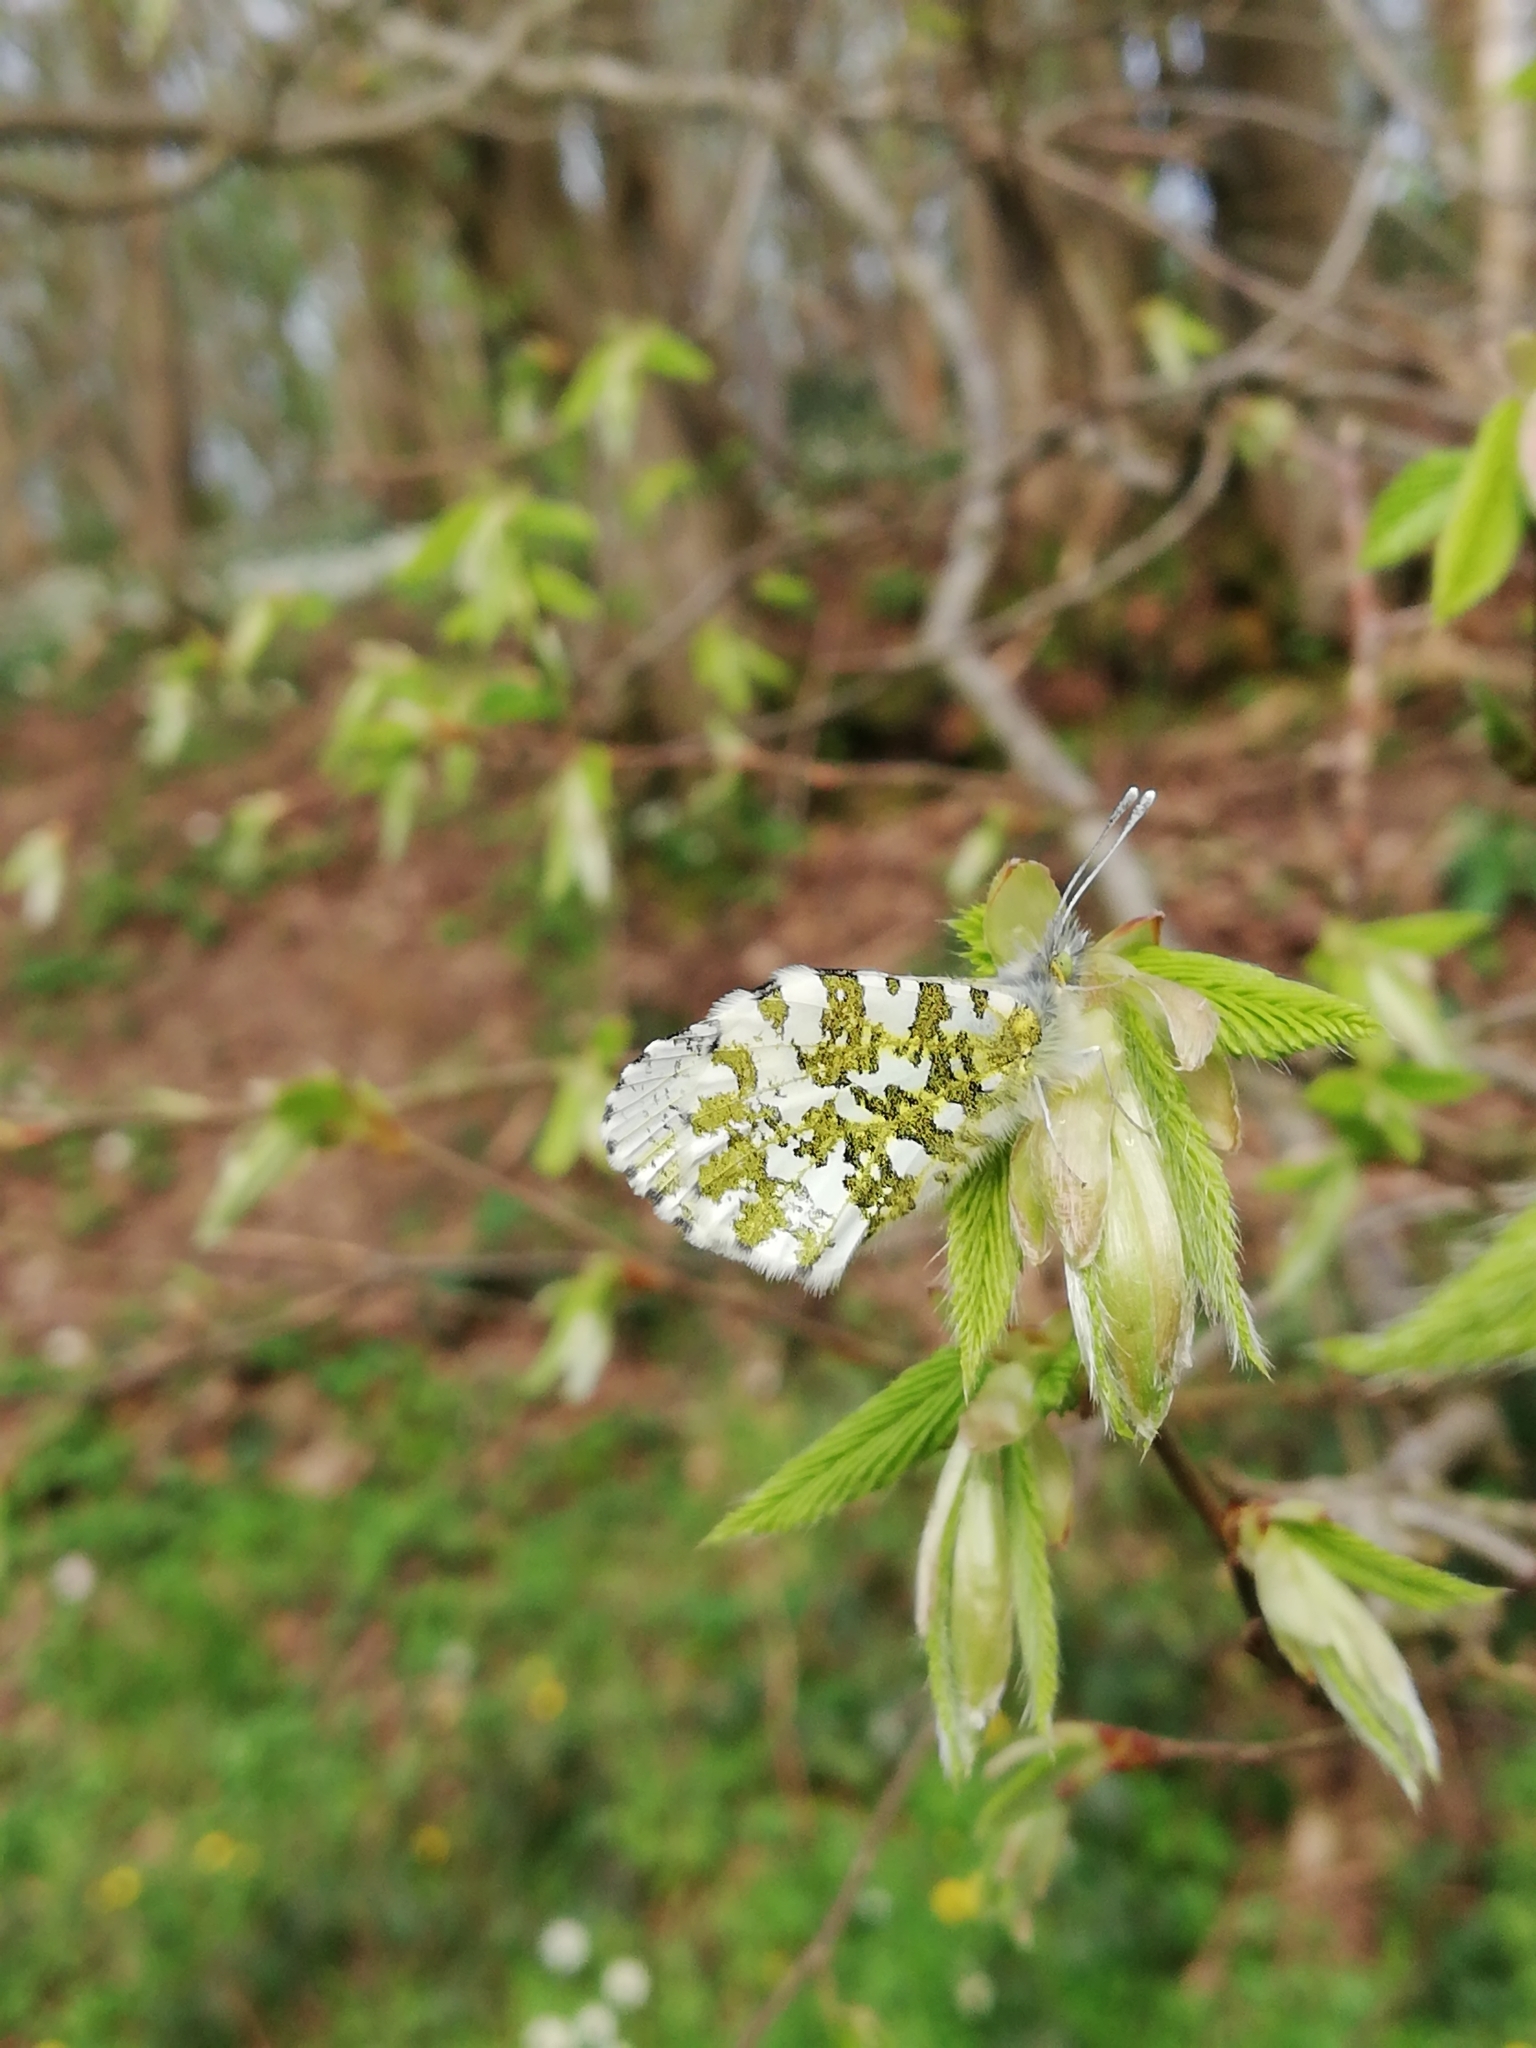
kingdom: Animalia
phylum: Arthropoda
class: Insecta
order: Lepidoptera
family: Pieridae
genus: Anthocharis
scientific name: Anthocharis cardamines
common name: Orange-tip
